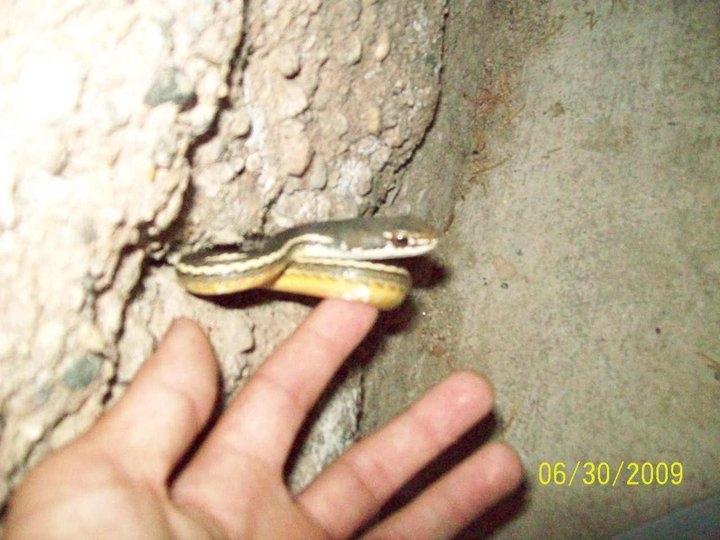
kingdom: Animalia
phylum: Chordata
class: Squamata
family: Colubridae
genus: Masticophis
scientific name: Masticophis lateralis
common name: Striped racer
